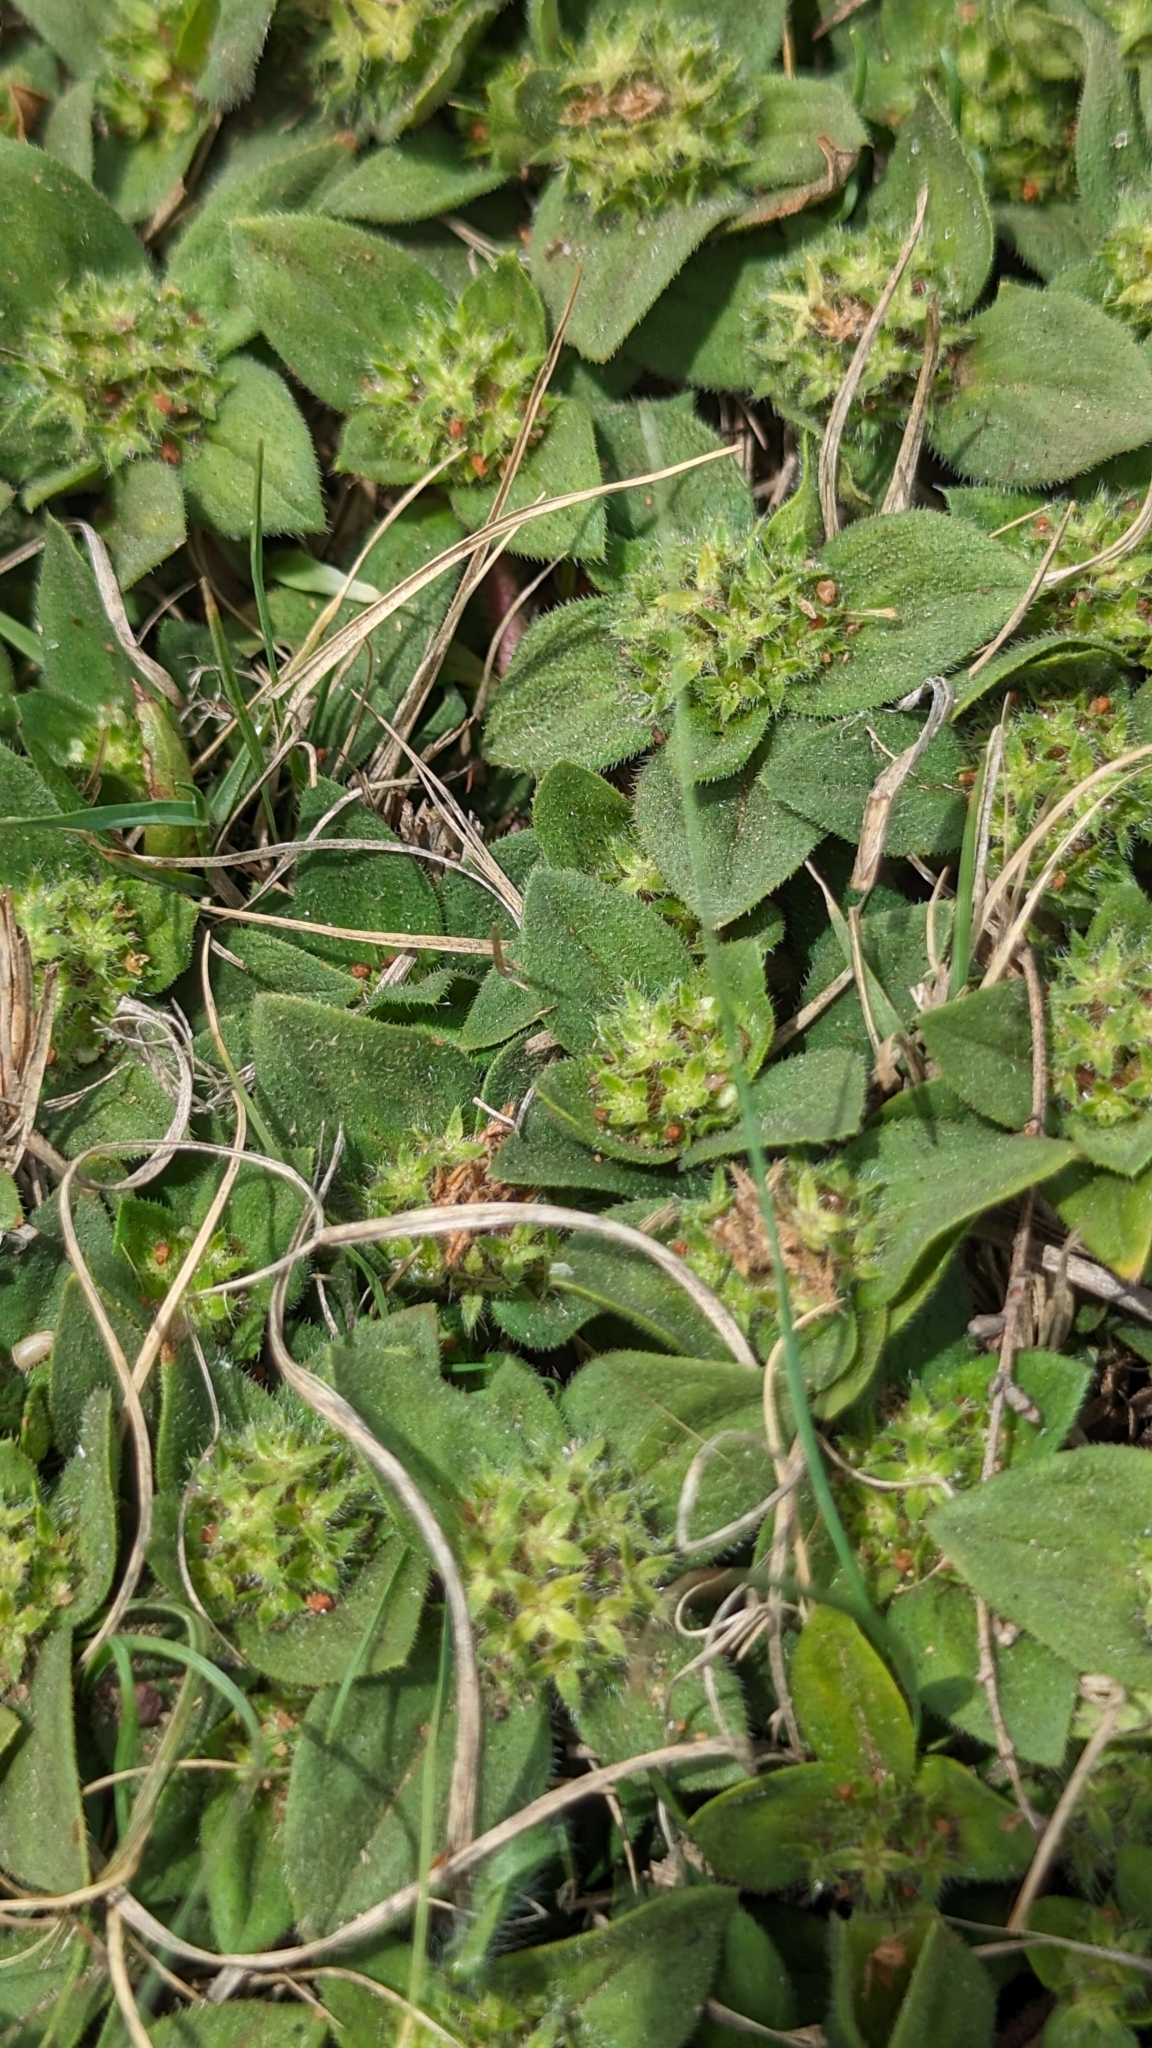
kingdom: Plantae
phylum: Tracheophyta
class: Magnoliopsida
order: Gentianales
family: Rubiaceae
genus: Richardia
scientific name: Richardia brasiliensis
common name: Tropical mexican clover
